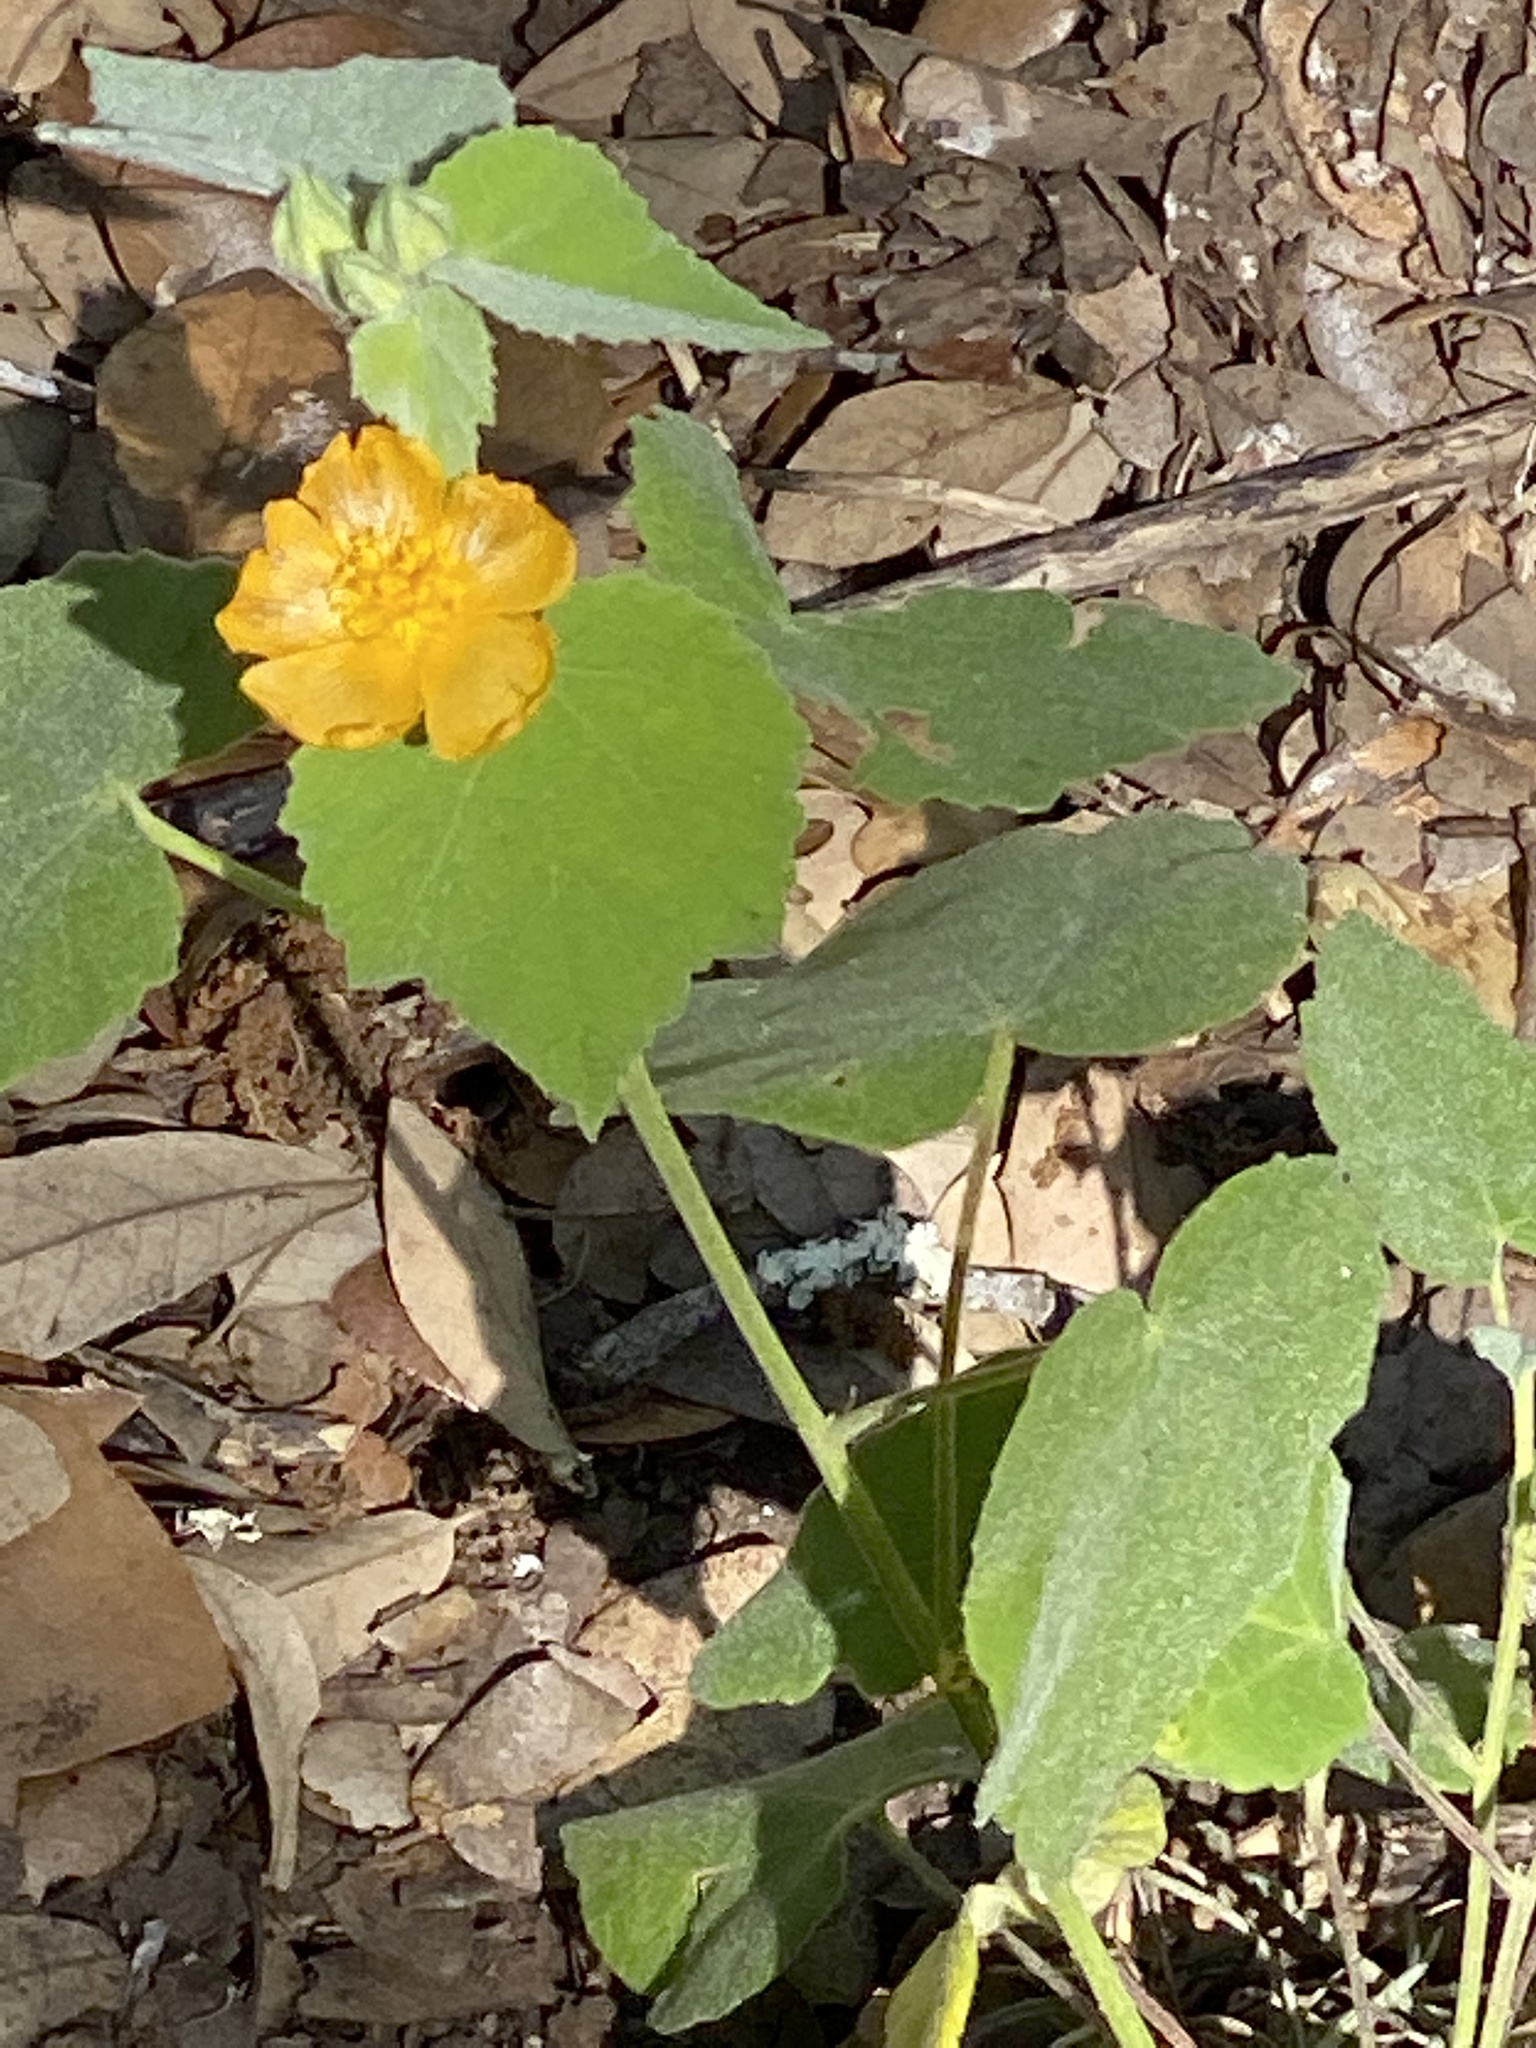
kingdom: Plantae
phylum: Tracheophyta
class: Magnoliopsida
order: Malvales
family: Malvaceae
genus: Allowissadula
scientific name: Allowissadula holosericea
